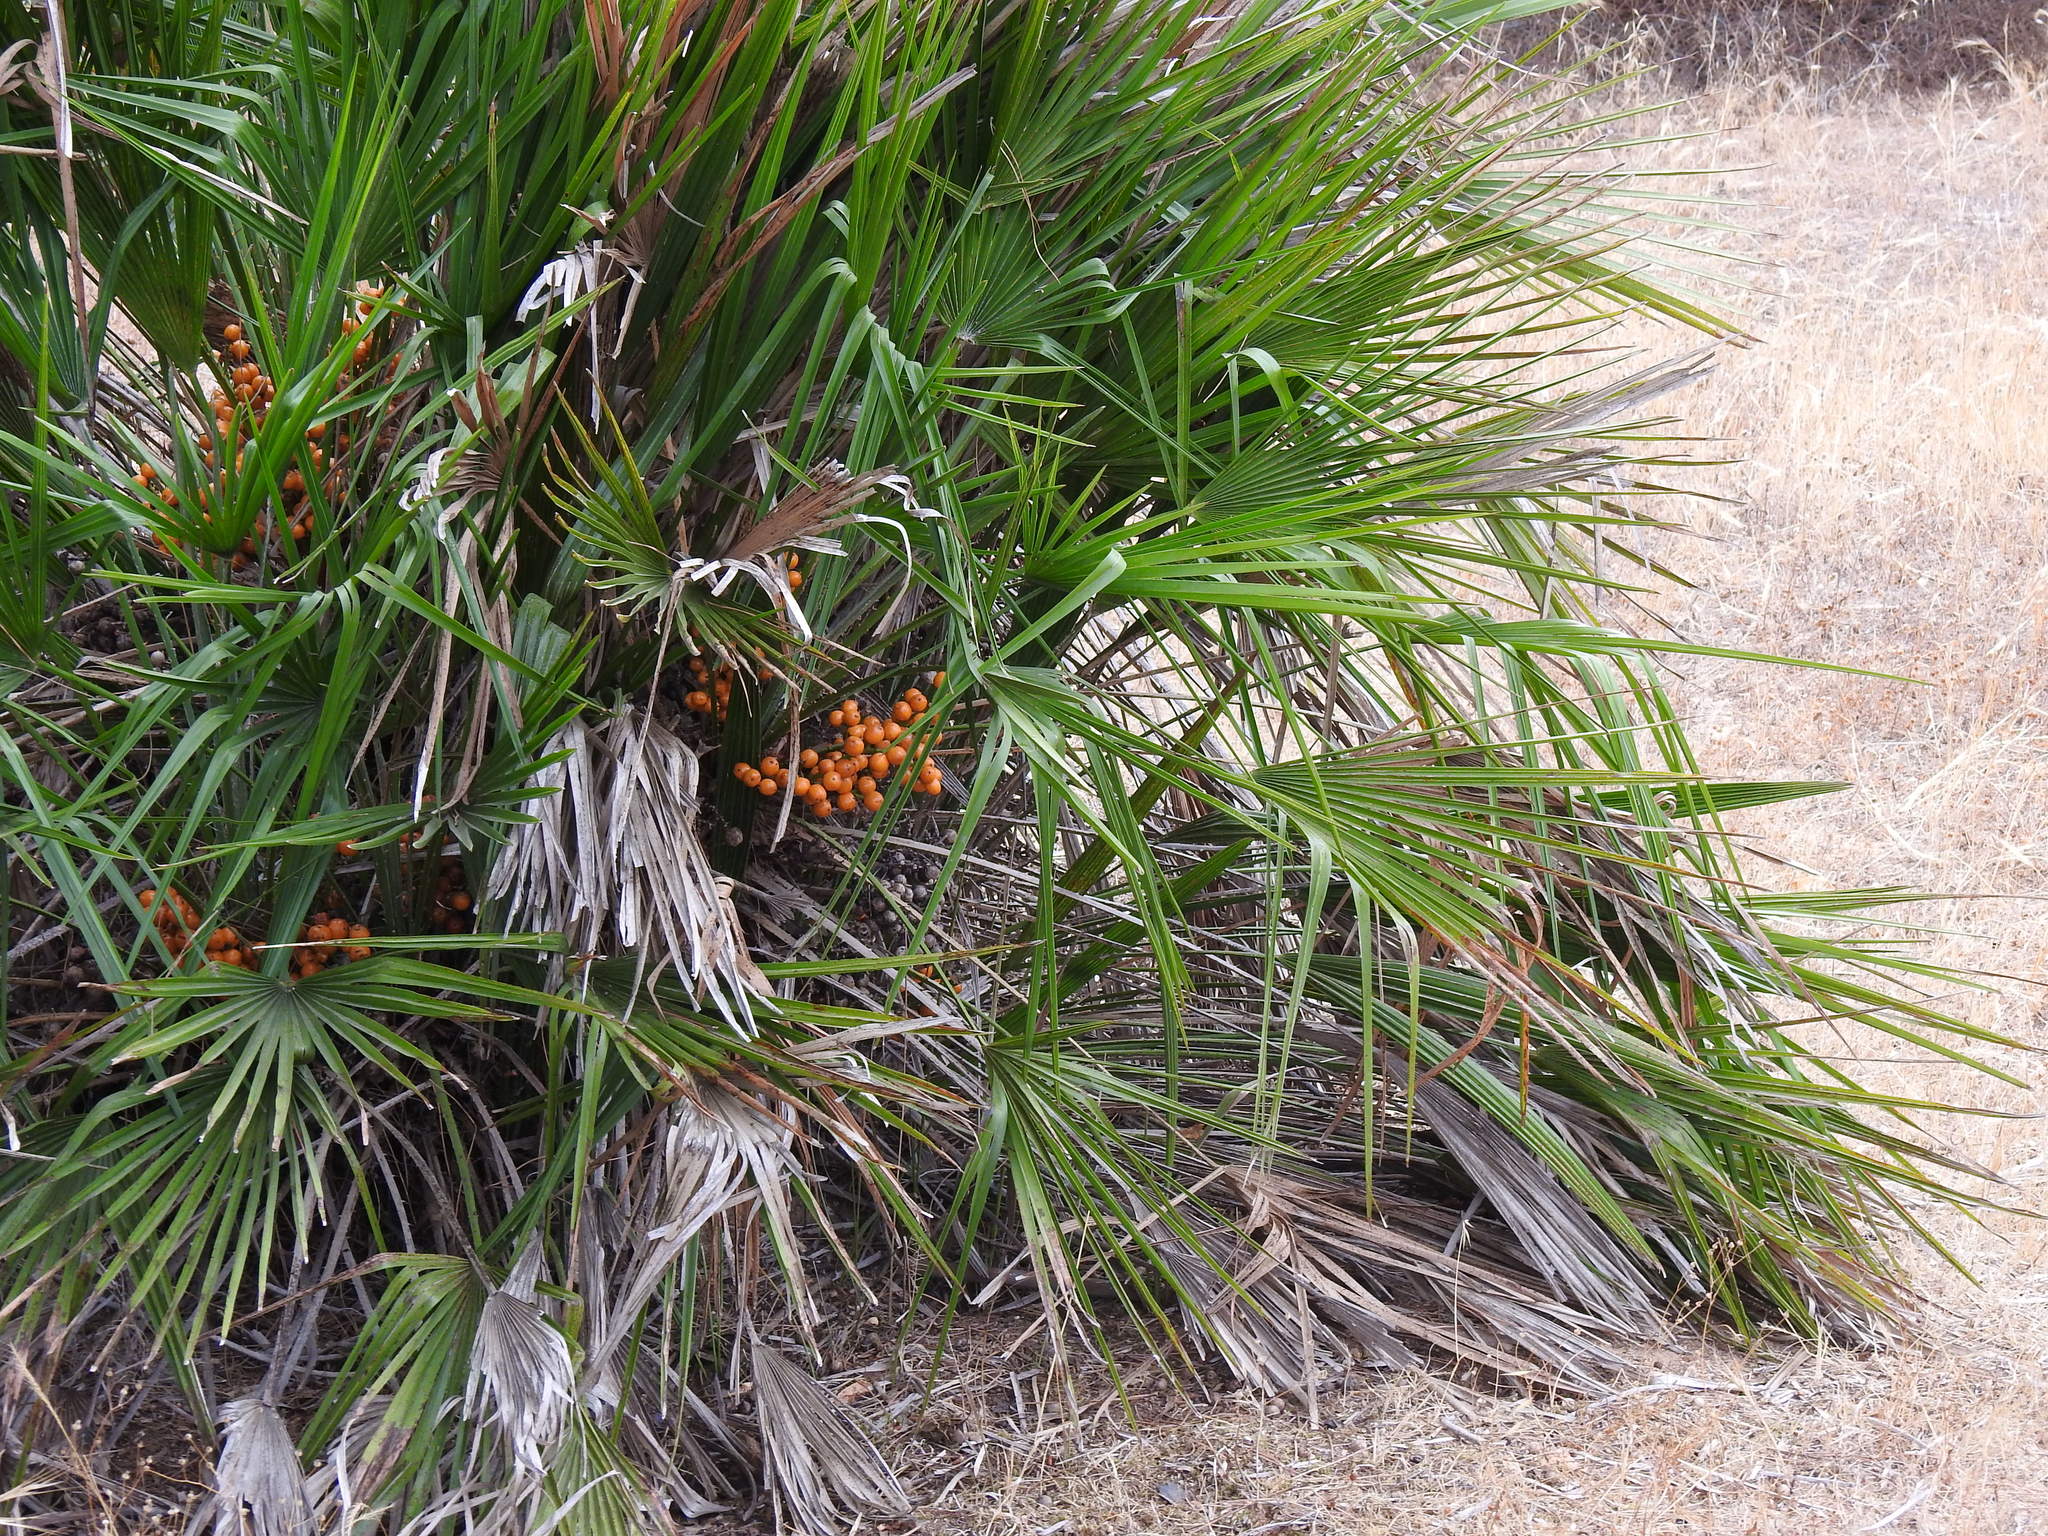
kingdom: Plantae
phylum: Tracheophyta
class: Liliopsida
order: Arecales
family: Arecaceae
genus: Chamaerops
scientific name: Chamaerops humilis
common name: Dwarf fan palm
